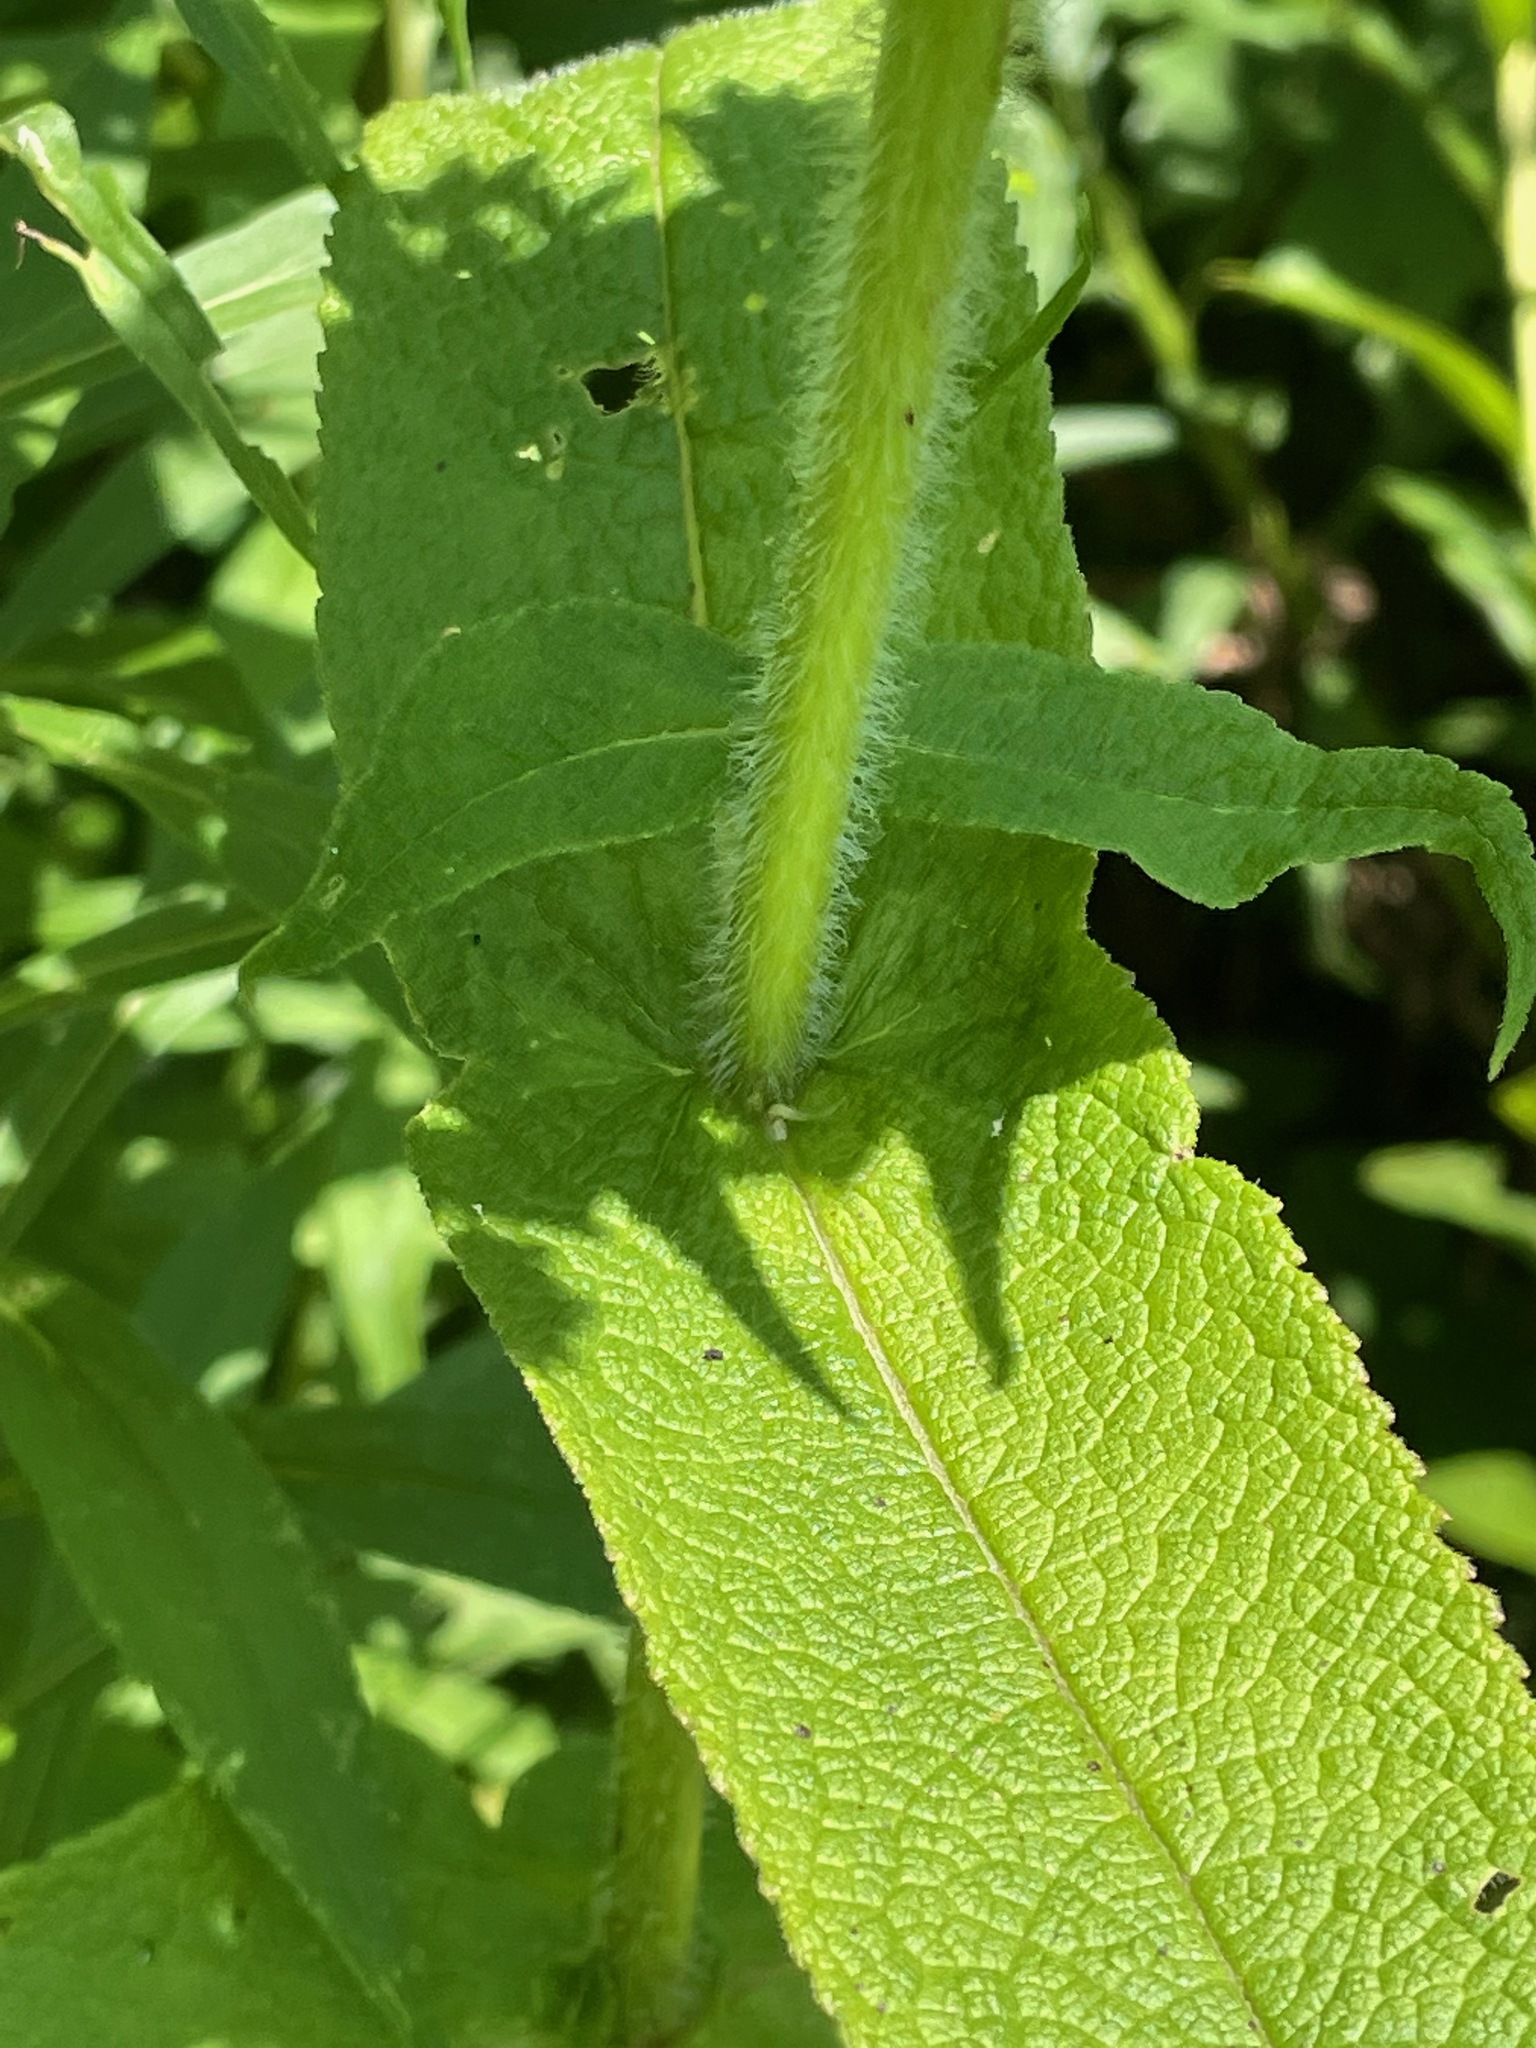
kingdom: Plantae
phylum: Tracheophyta
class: Magnoliopsida
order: Asterales
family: Asteraceae
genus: Eupatorium
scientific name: Eupatorium perfoliatum
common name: Boneset
